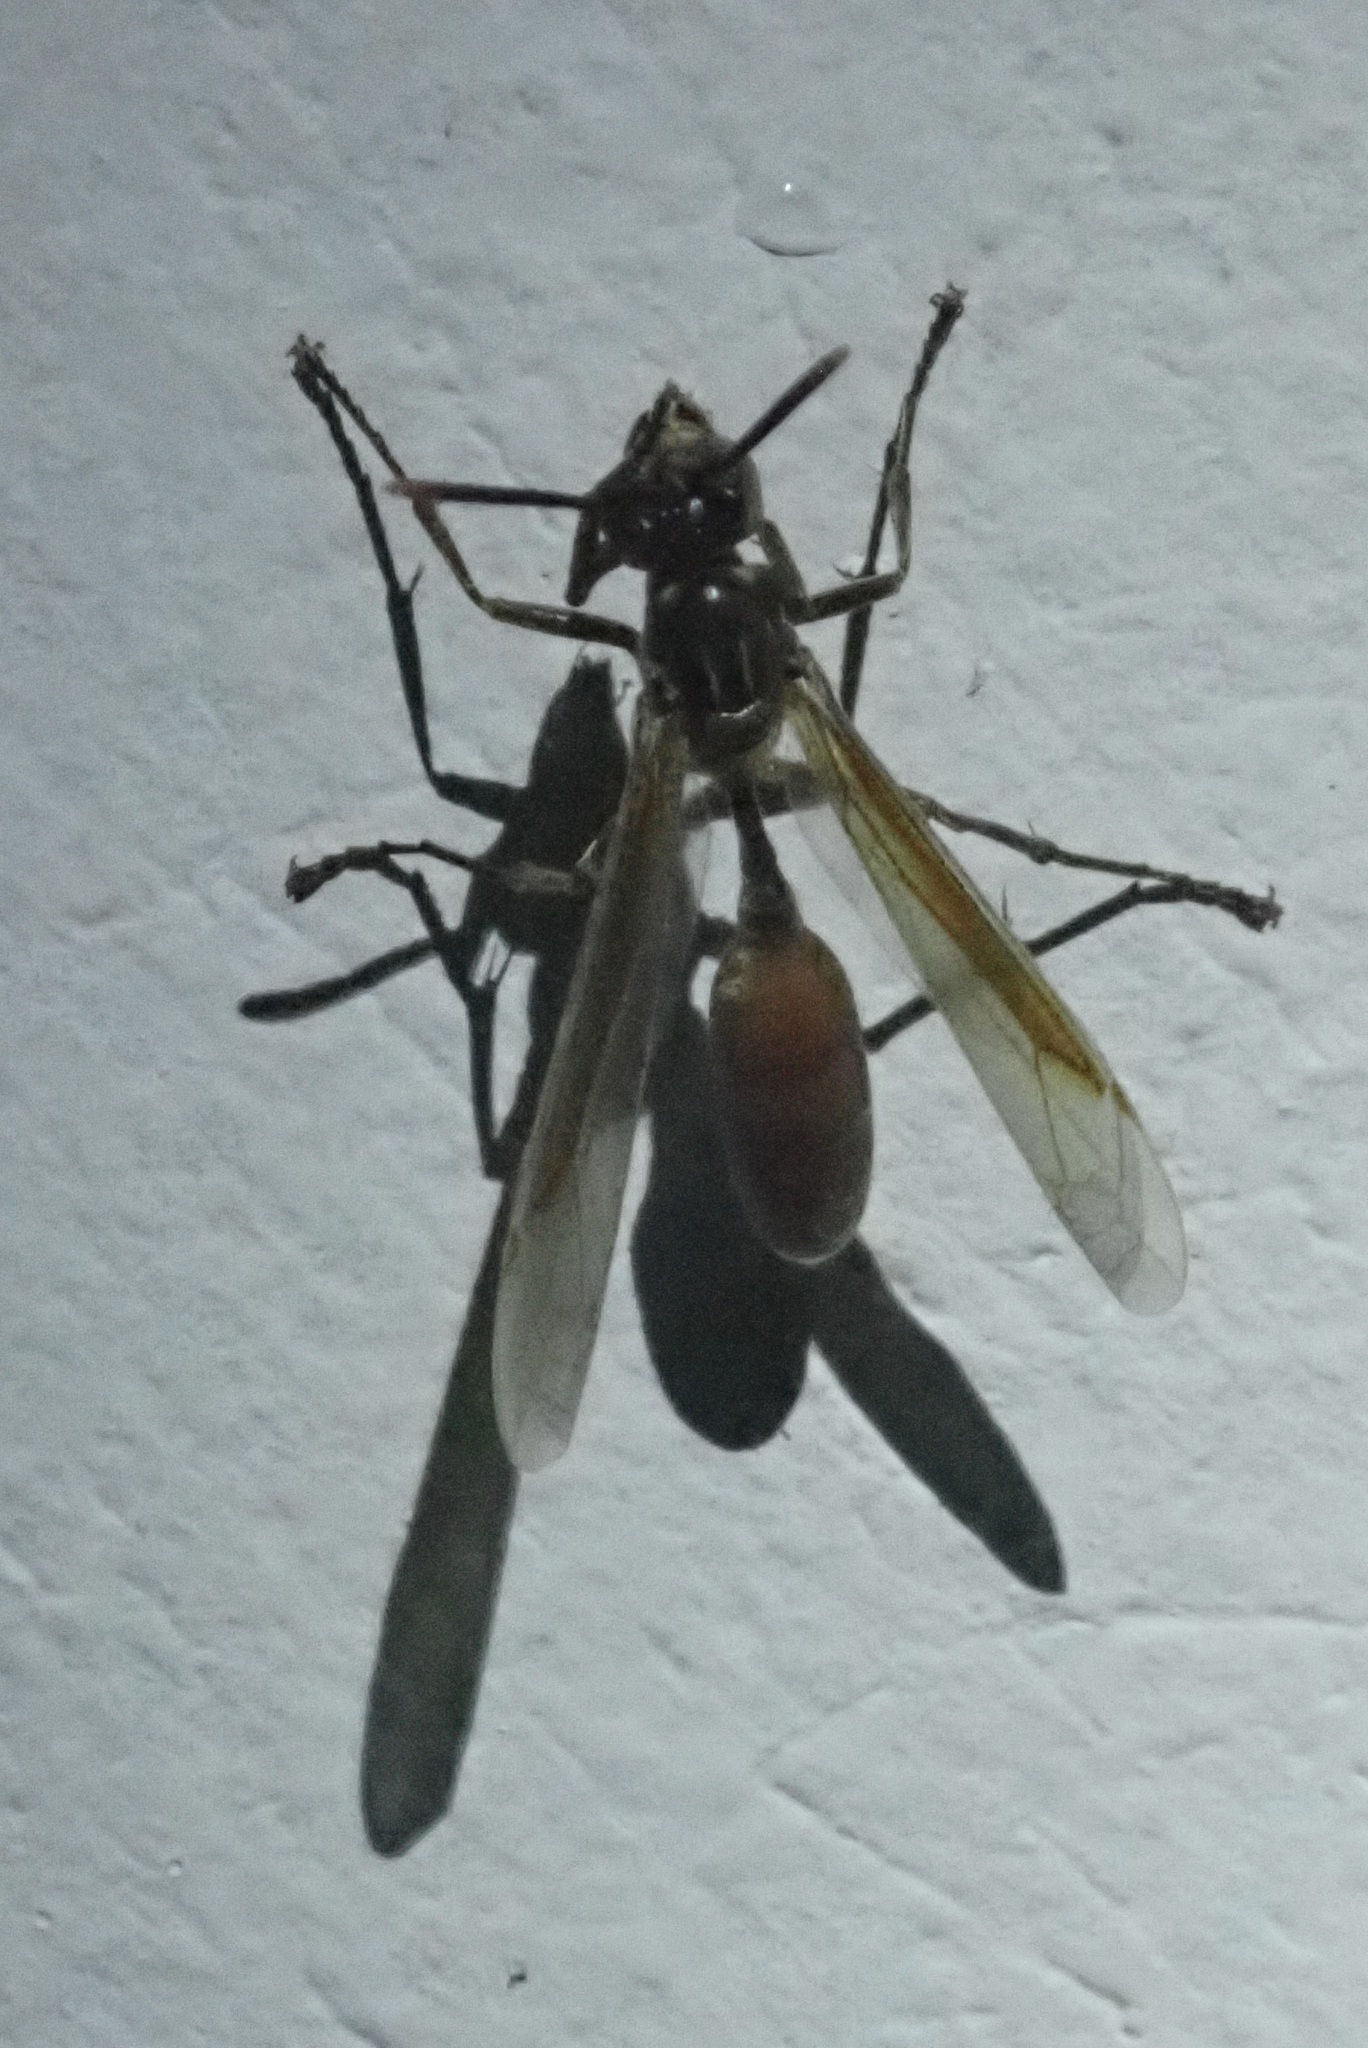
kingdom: Animalia
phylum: Arthropoda
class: Insecta
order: Hymenoptera
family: Vespidae
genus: Apoica
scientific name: Apoica pallida
